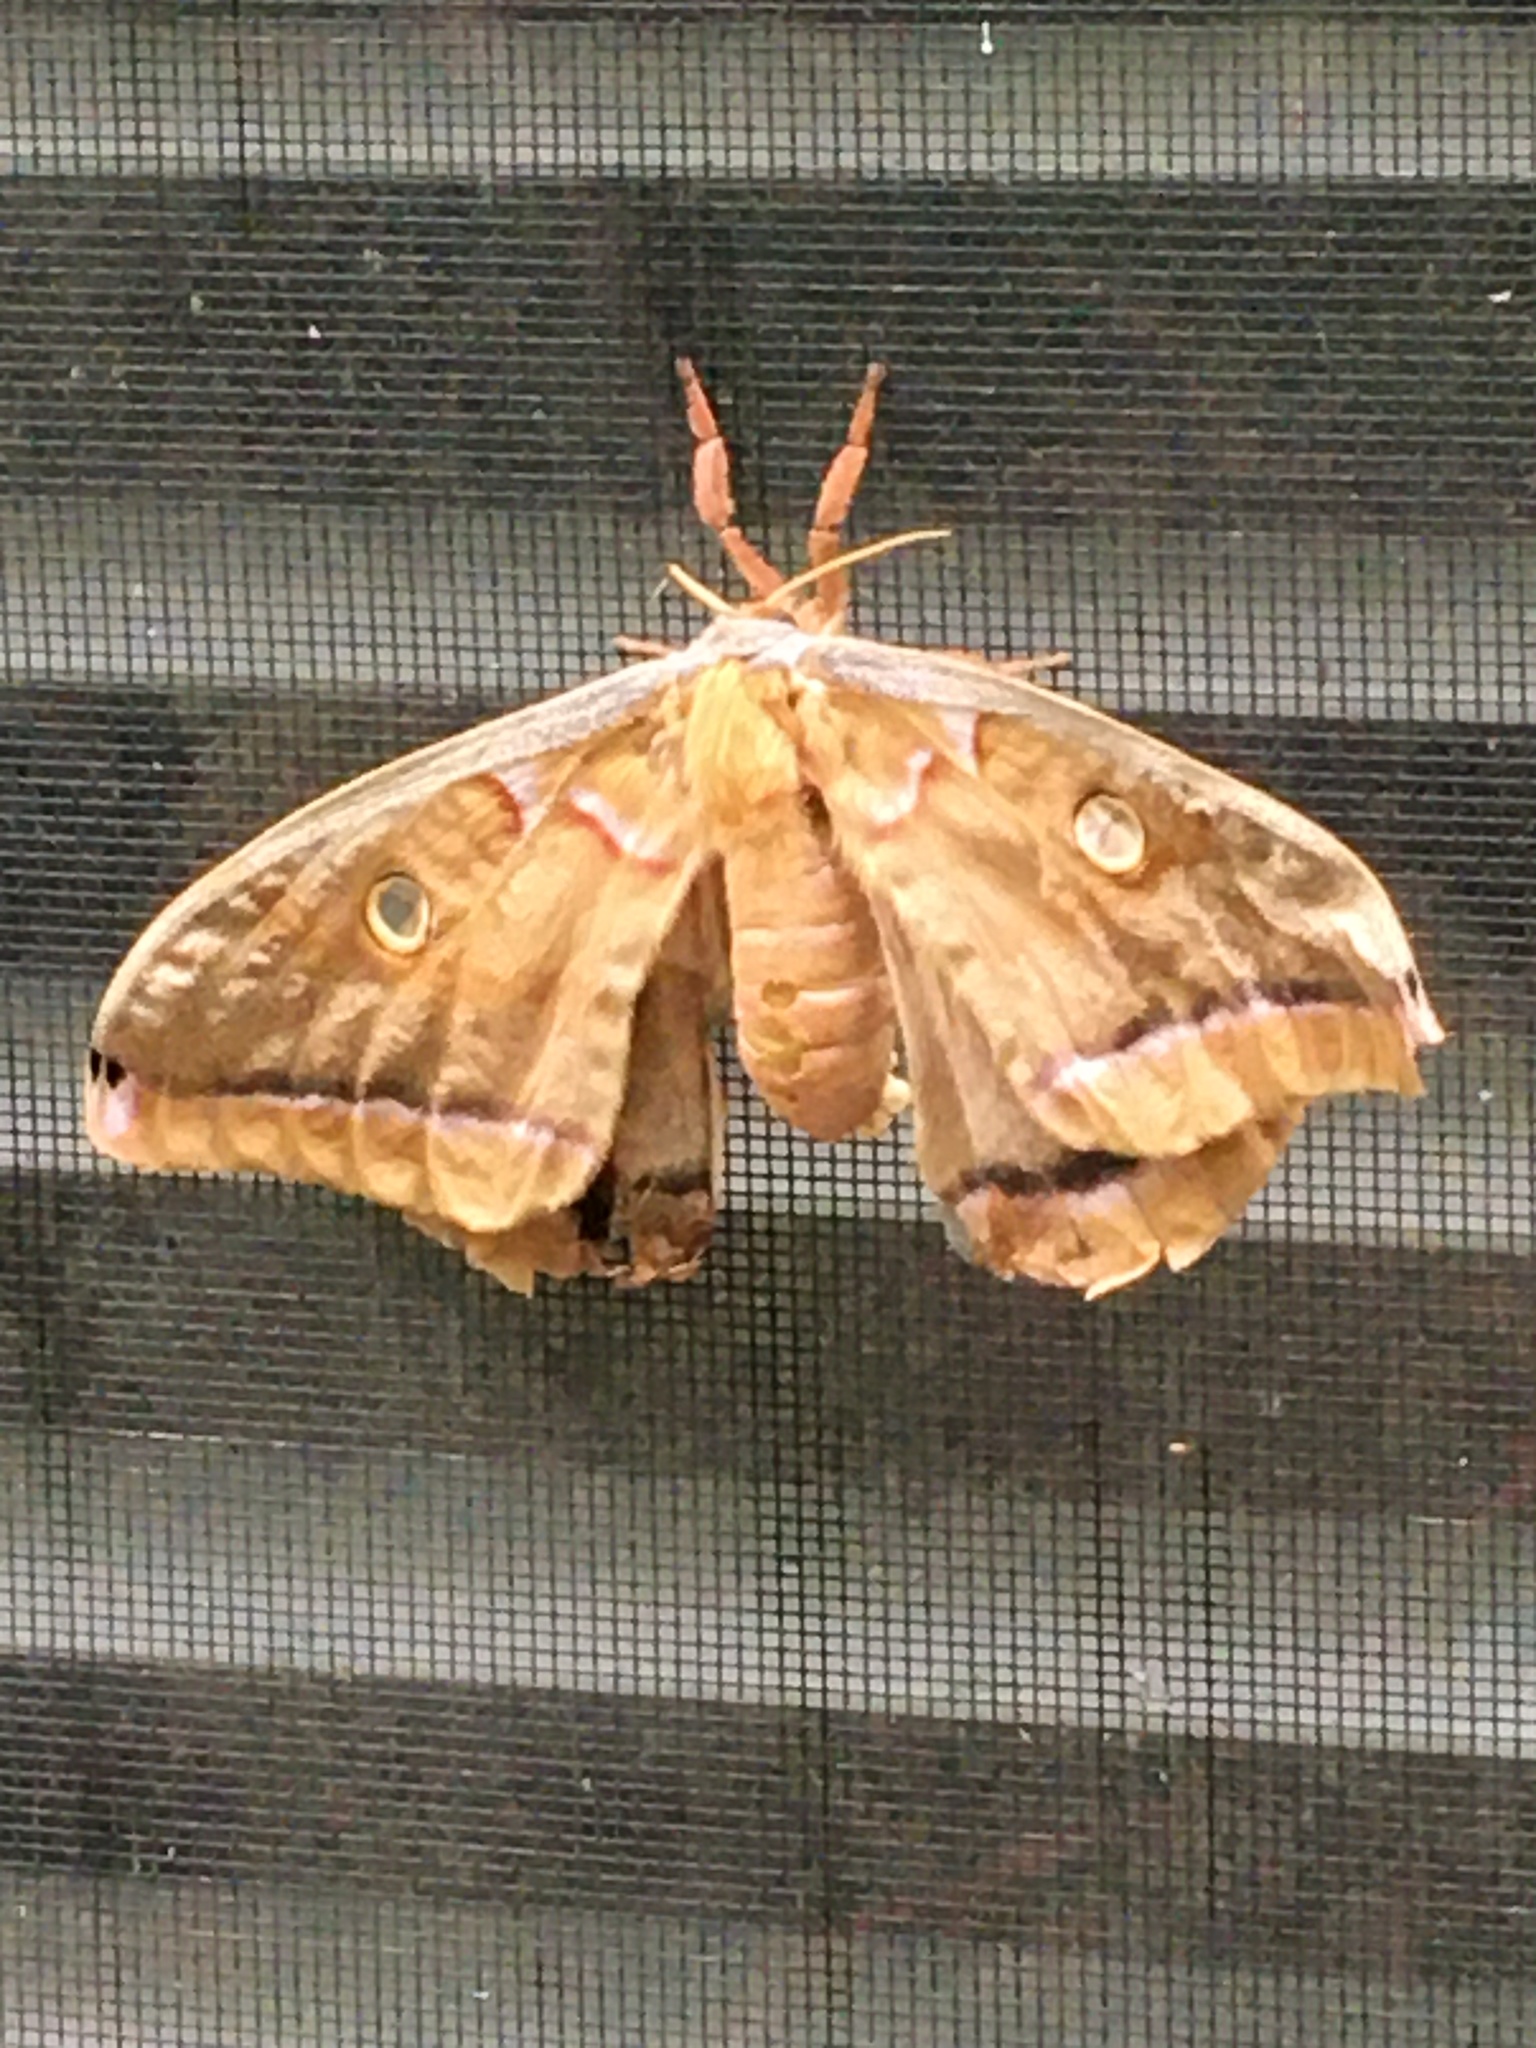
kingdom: Animalia
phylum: Arthropoda
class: Insecta
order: Lepidoptera
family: Saturniidae
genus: Antheraea
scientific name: Antheraea polyphemus
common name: Polyphemus moth
